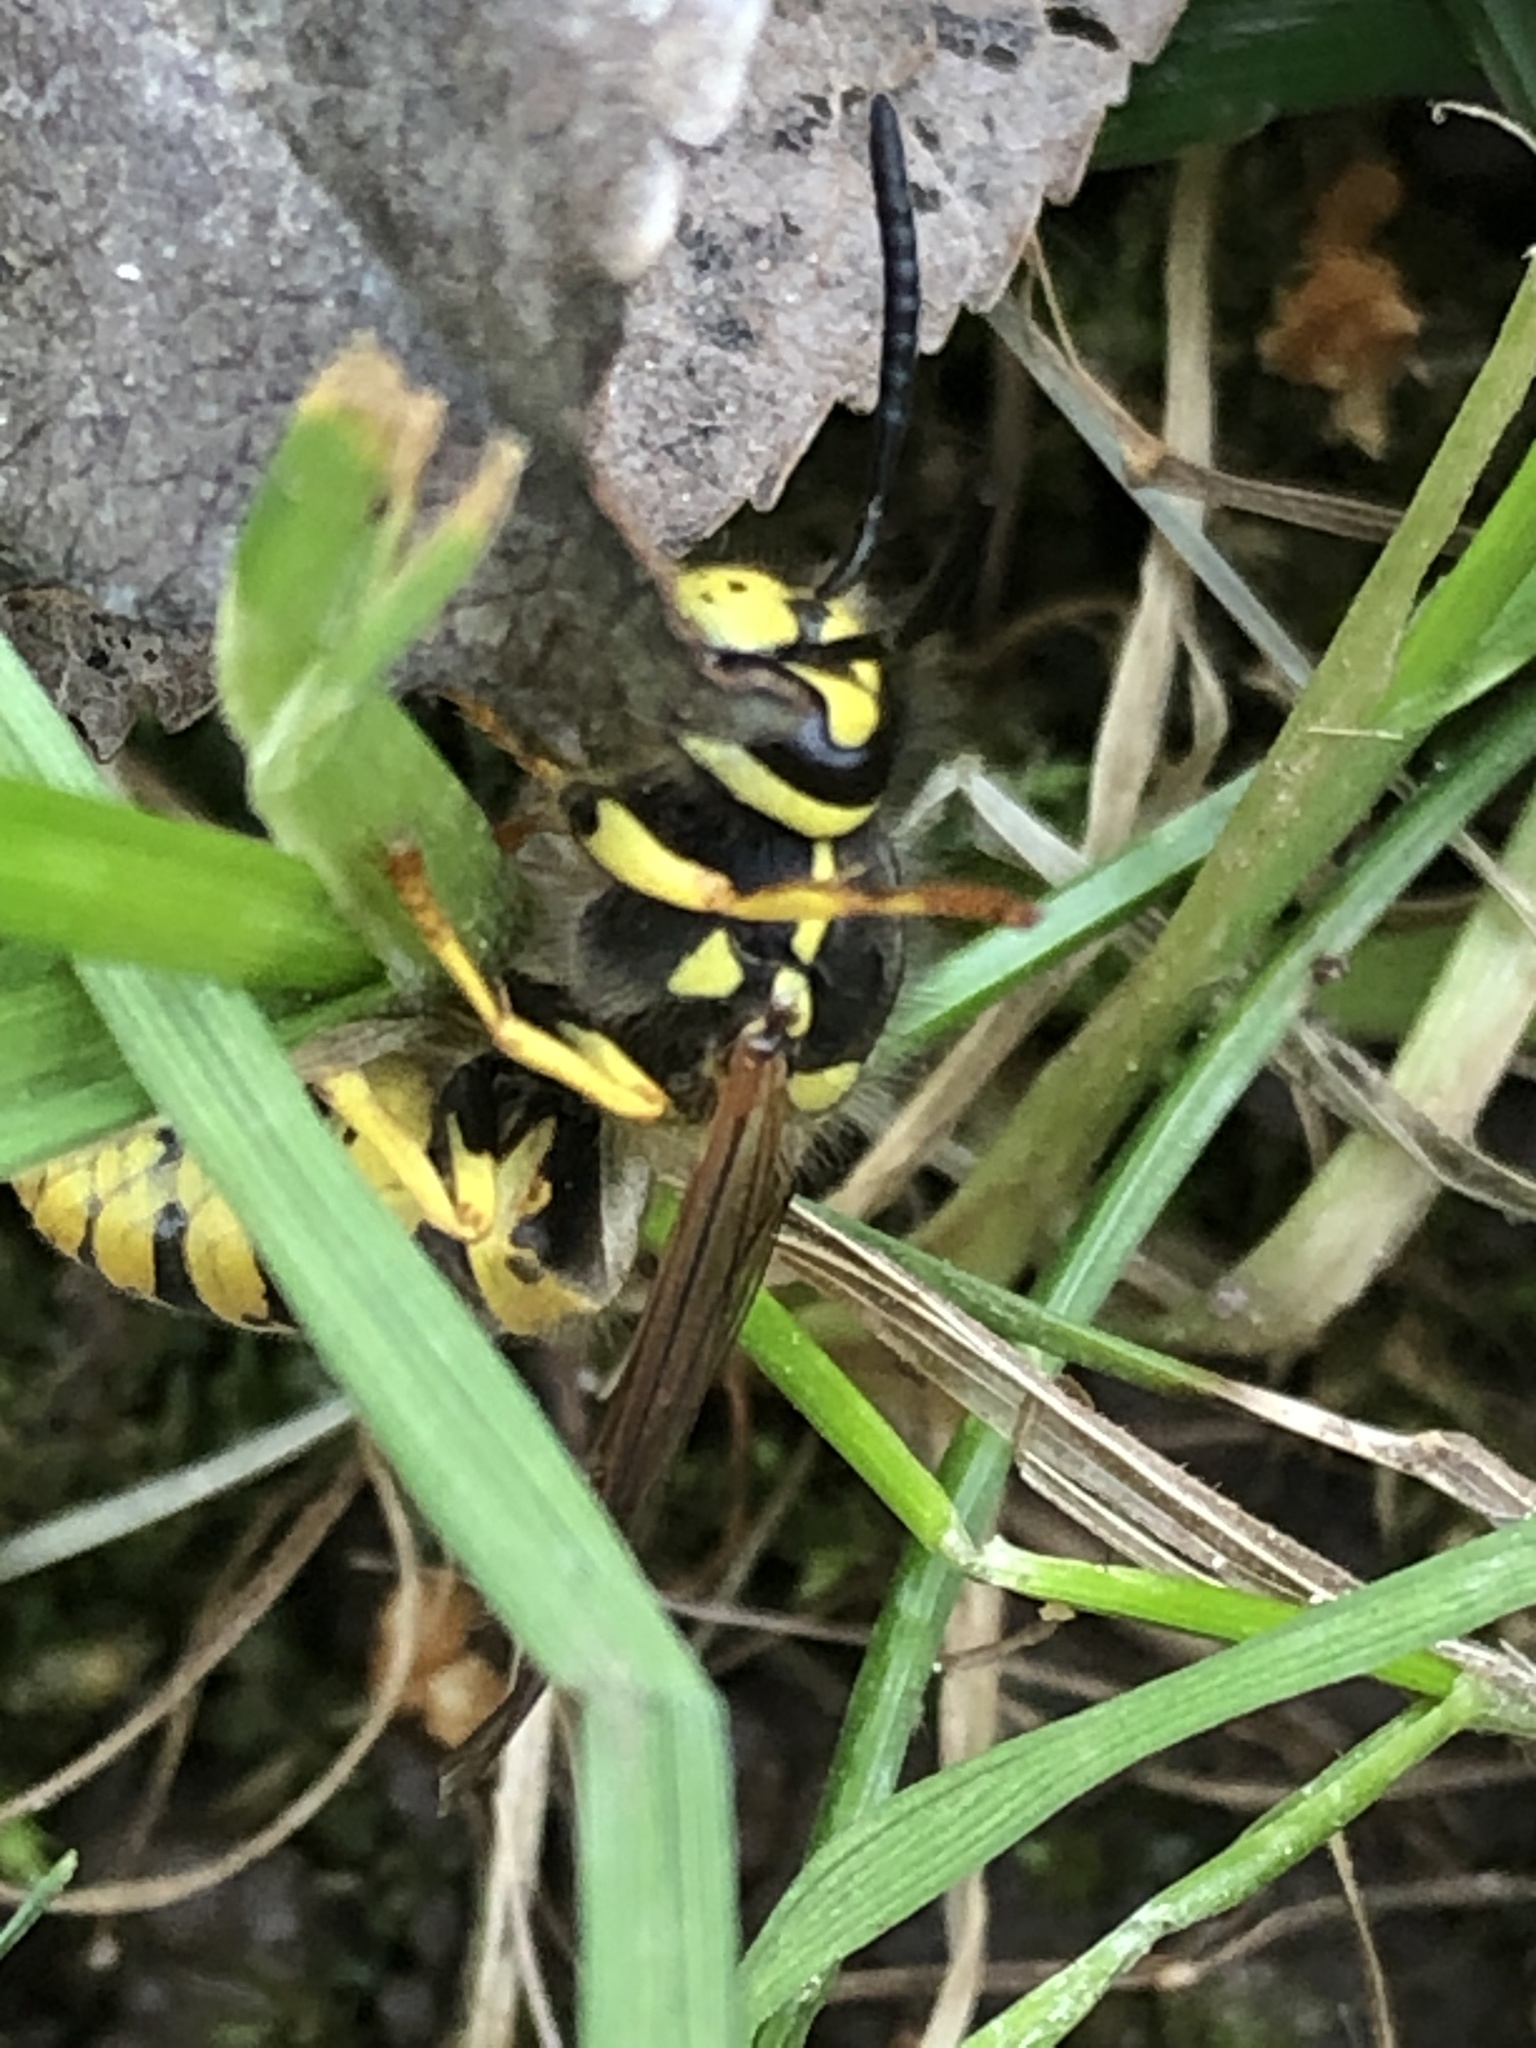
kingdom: Animalia
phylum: Arthropoda
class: Insecta
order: Hymenoptera
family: Vespidae
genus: Vespula
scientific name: Vespula germanica
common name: German wasp
